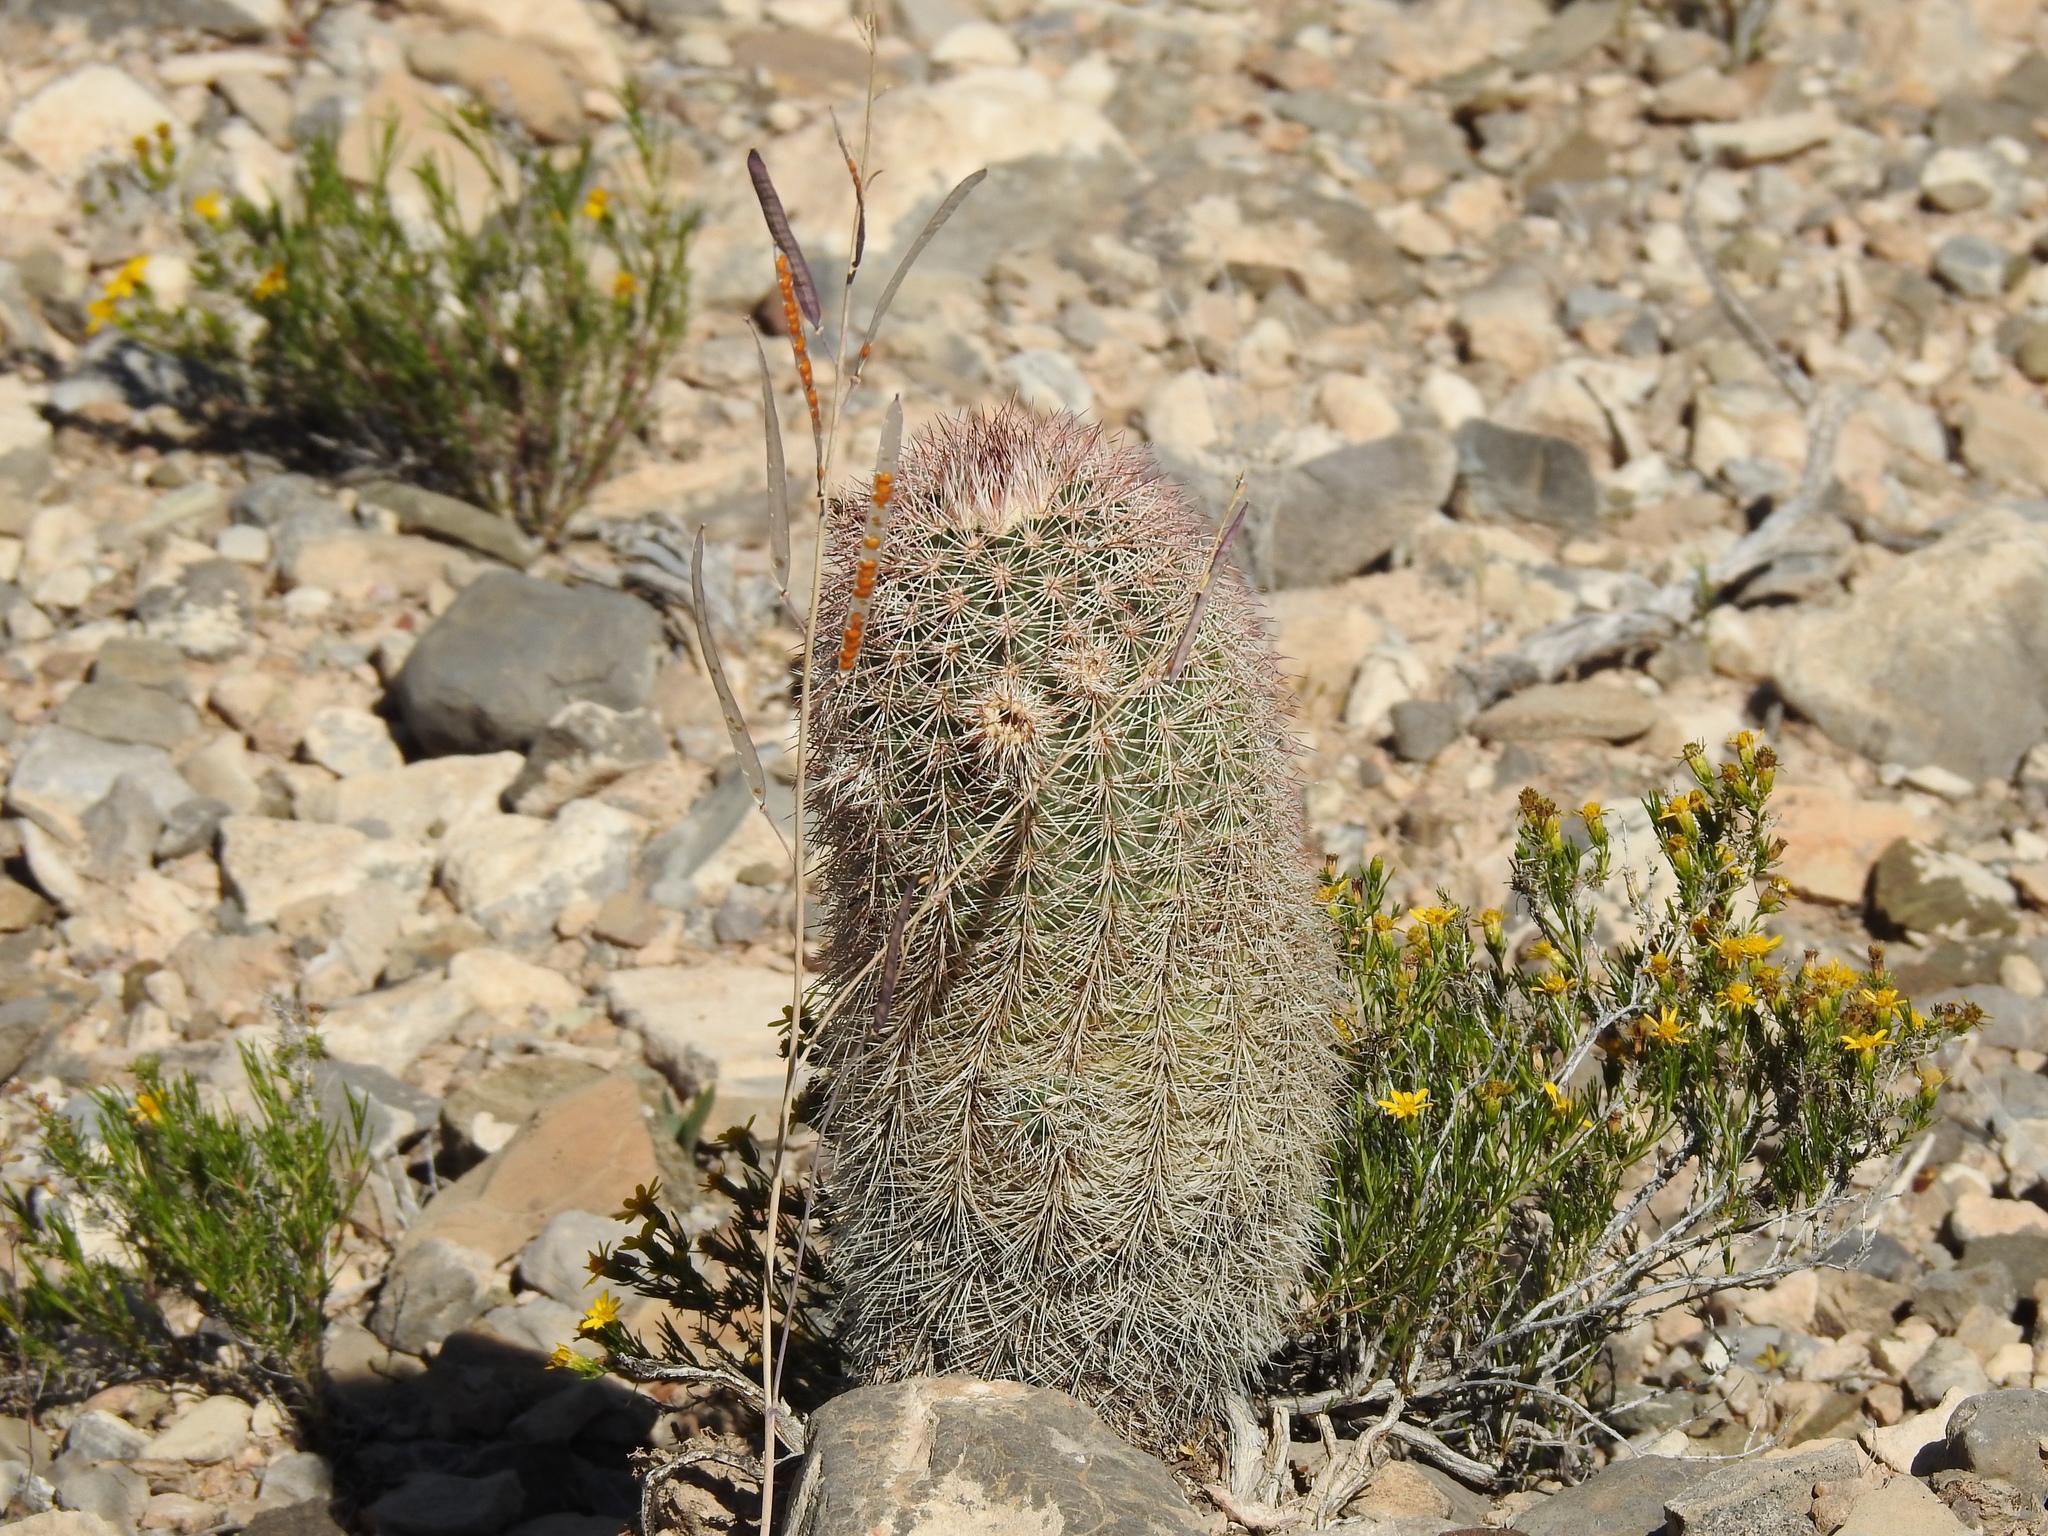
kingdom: Plantae
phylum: Tracheophyta
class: Magnoliopsida
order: Caryophyllales
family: Cactaceae
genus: Echinocereus
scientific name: Echinocereus dasyacanthus
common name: Spiny hedgehog cactus
